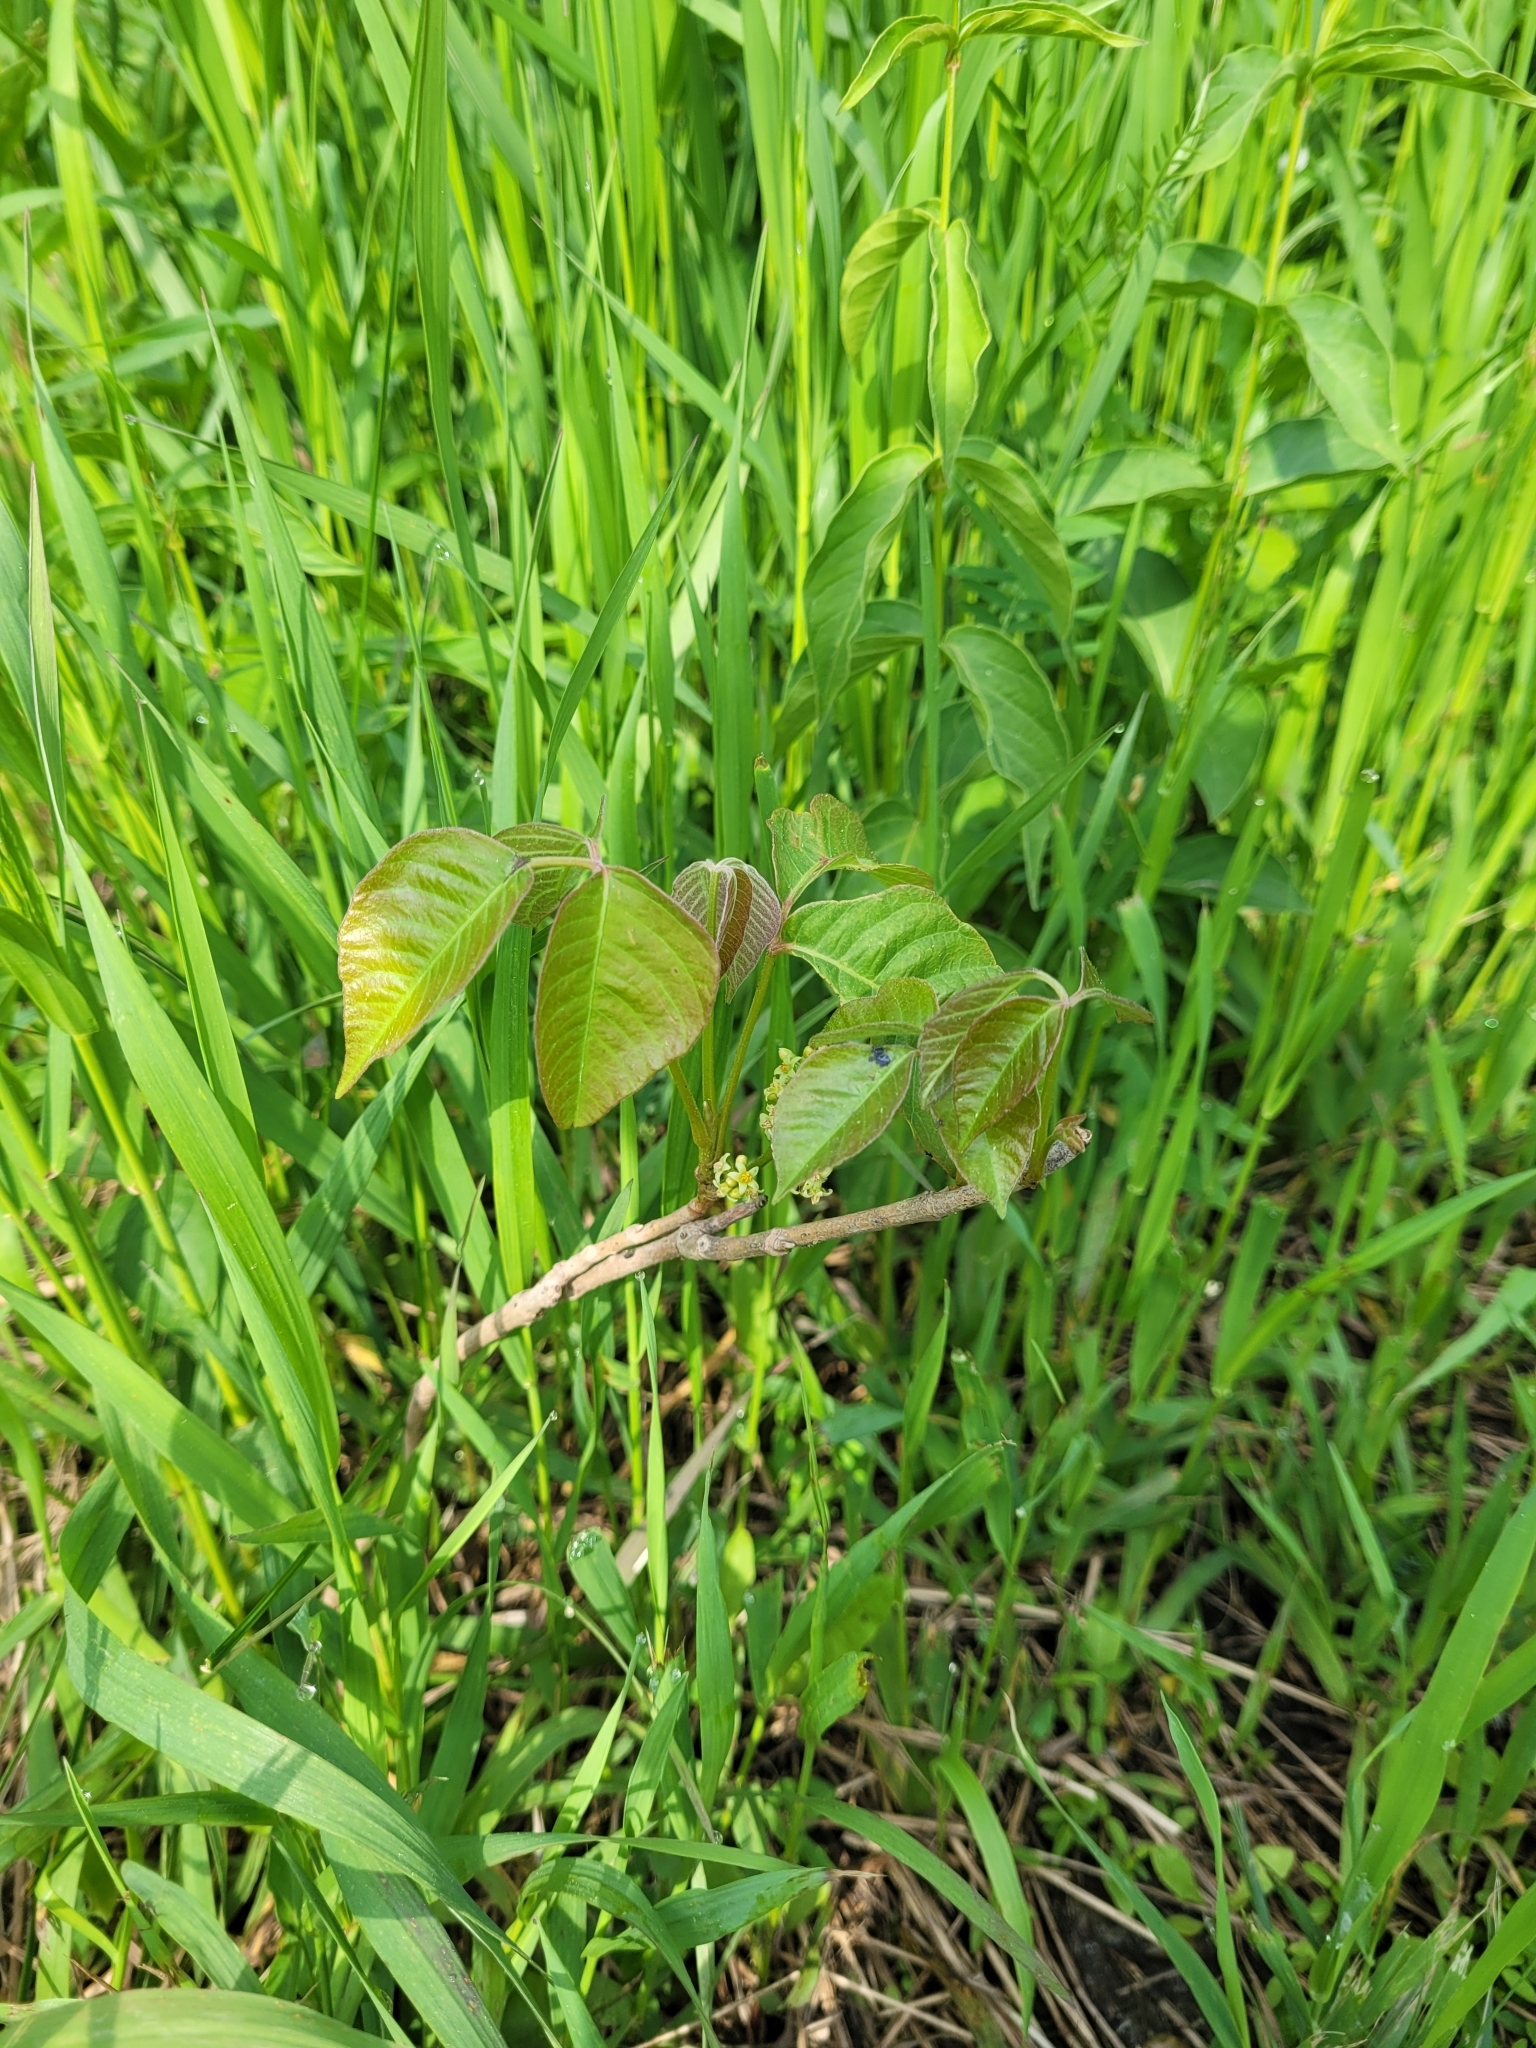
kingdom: Plantae
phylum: Tracheophyta
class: Magnoliopsida
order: Sapindales
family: Anacardiaceae
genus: Toxicodendron
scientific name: Toxicodendron radicans
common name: Poison ivy
